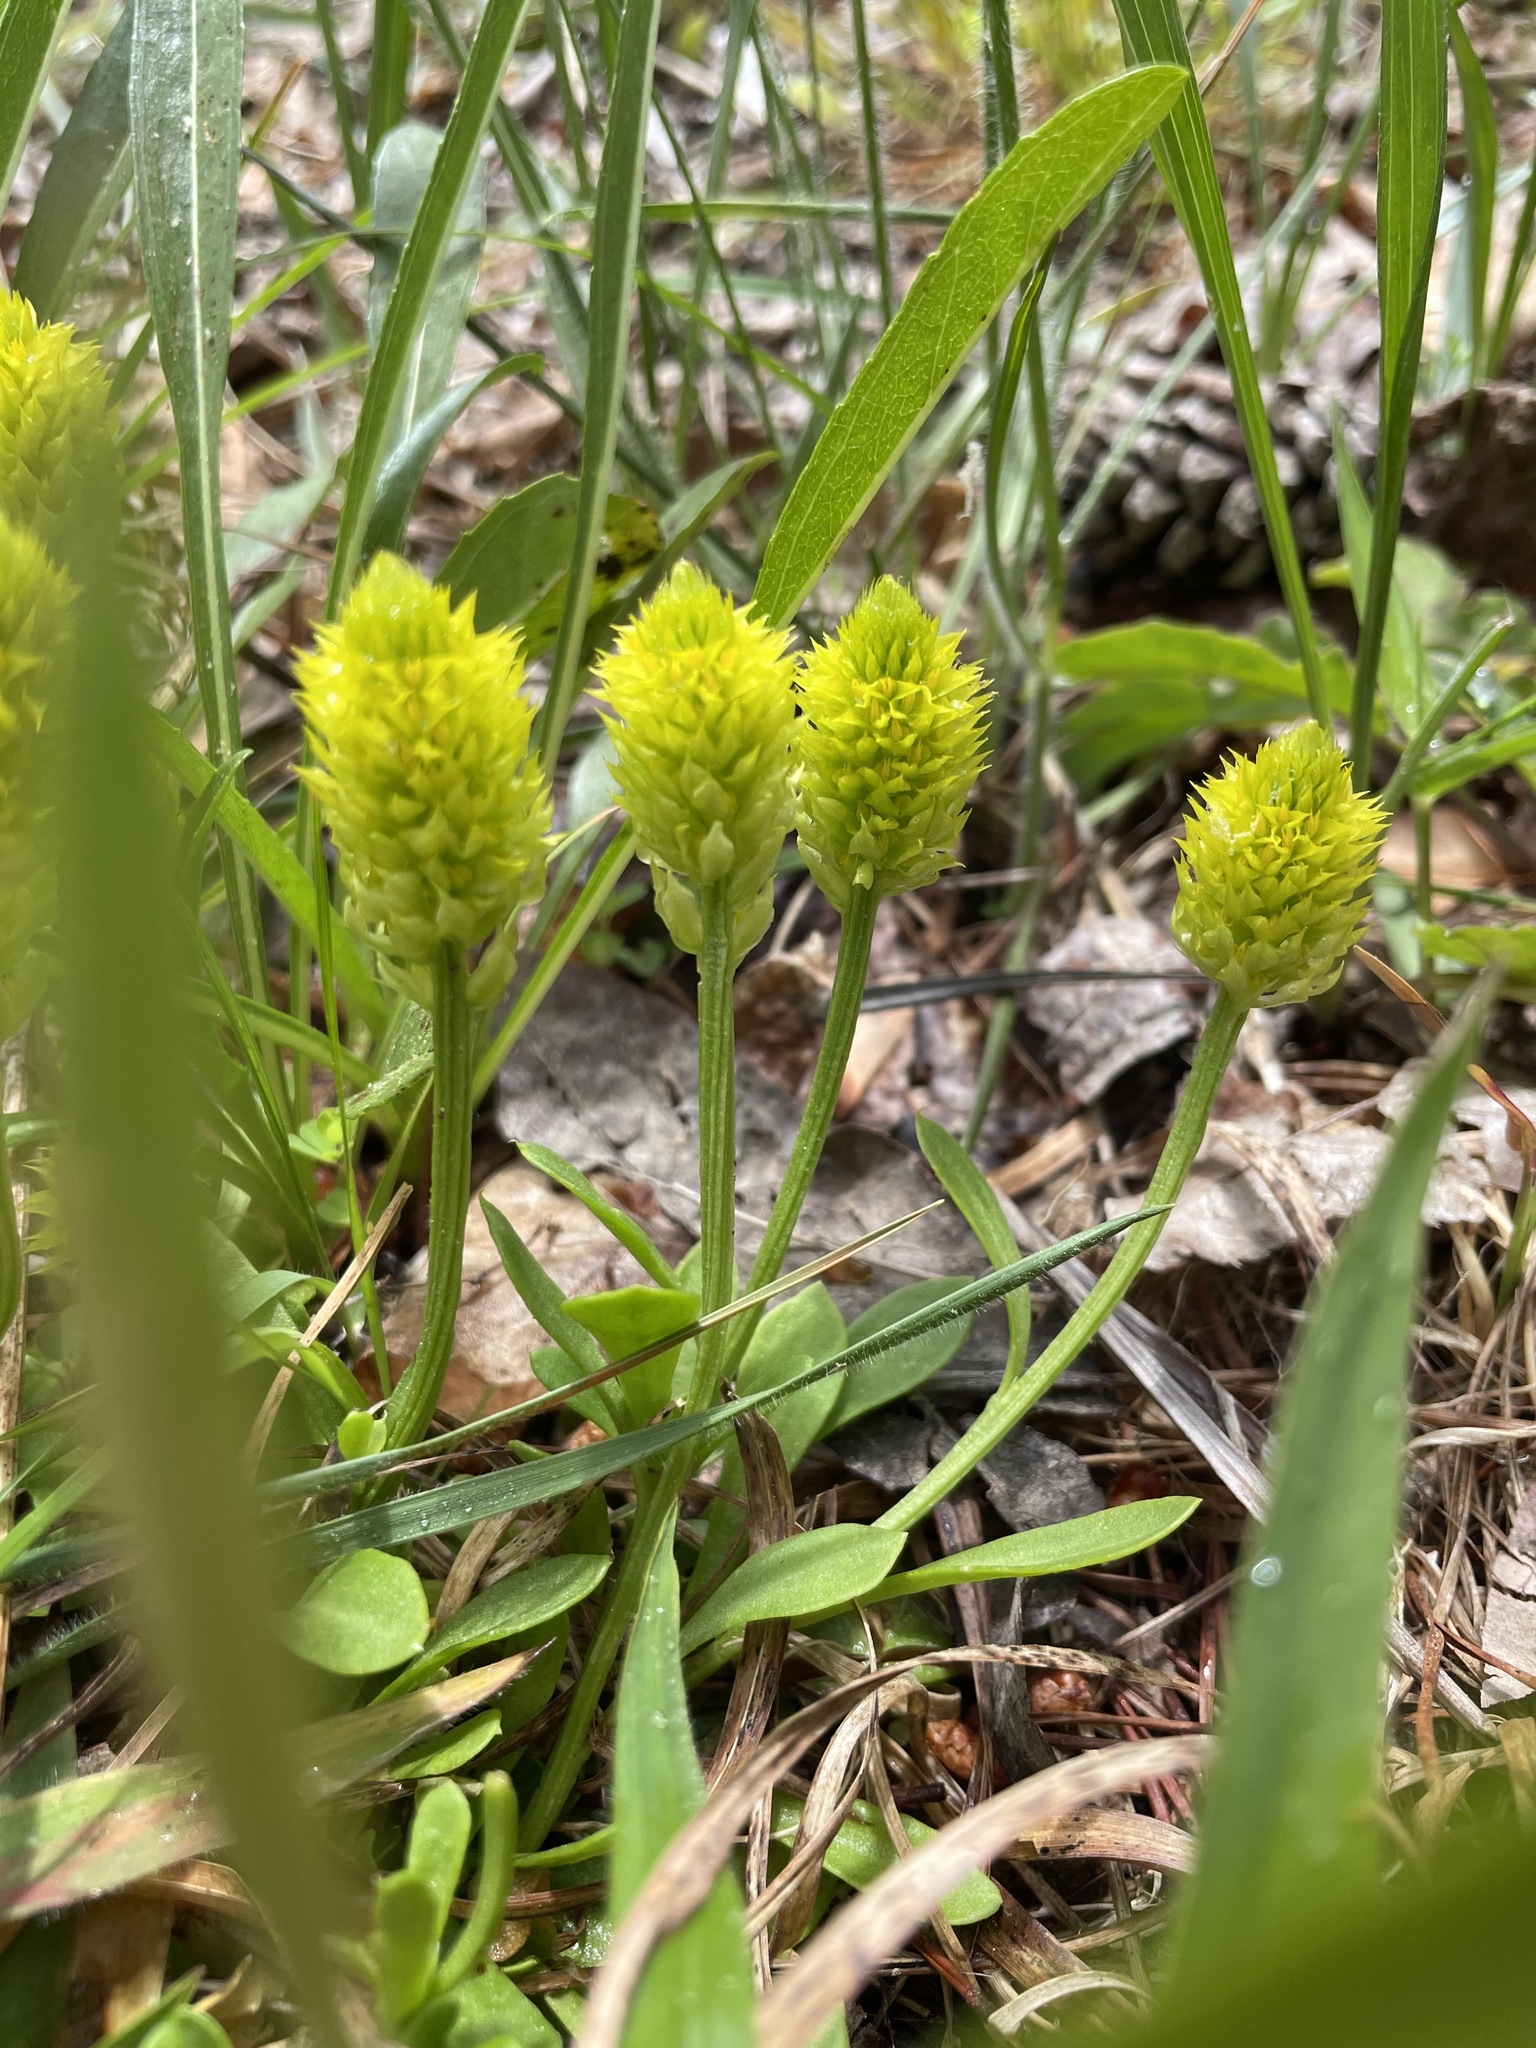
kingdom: Plantae
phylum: Tracheophyta
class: Magnoliopsida
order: Fabales
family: Polygalaceae
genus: Polygala
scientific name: Polygala nana
